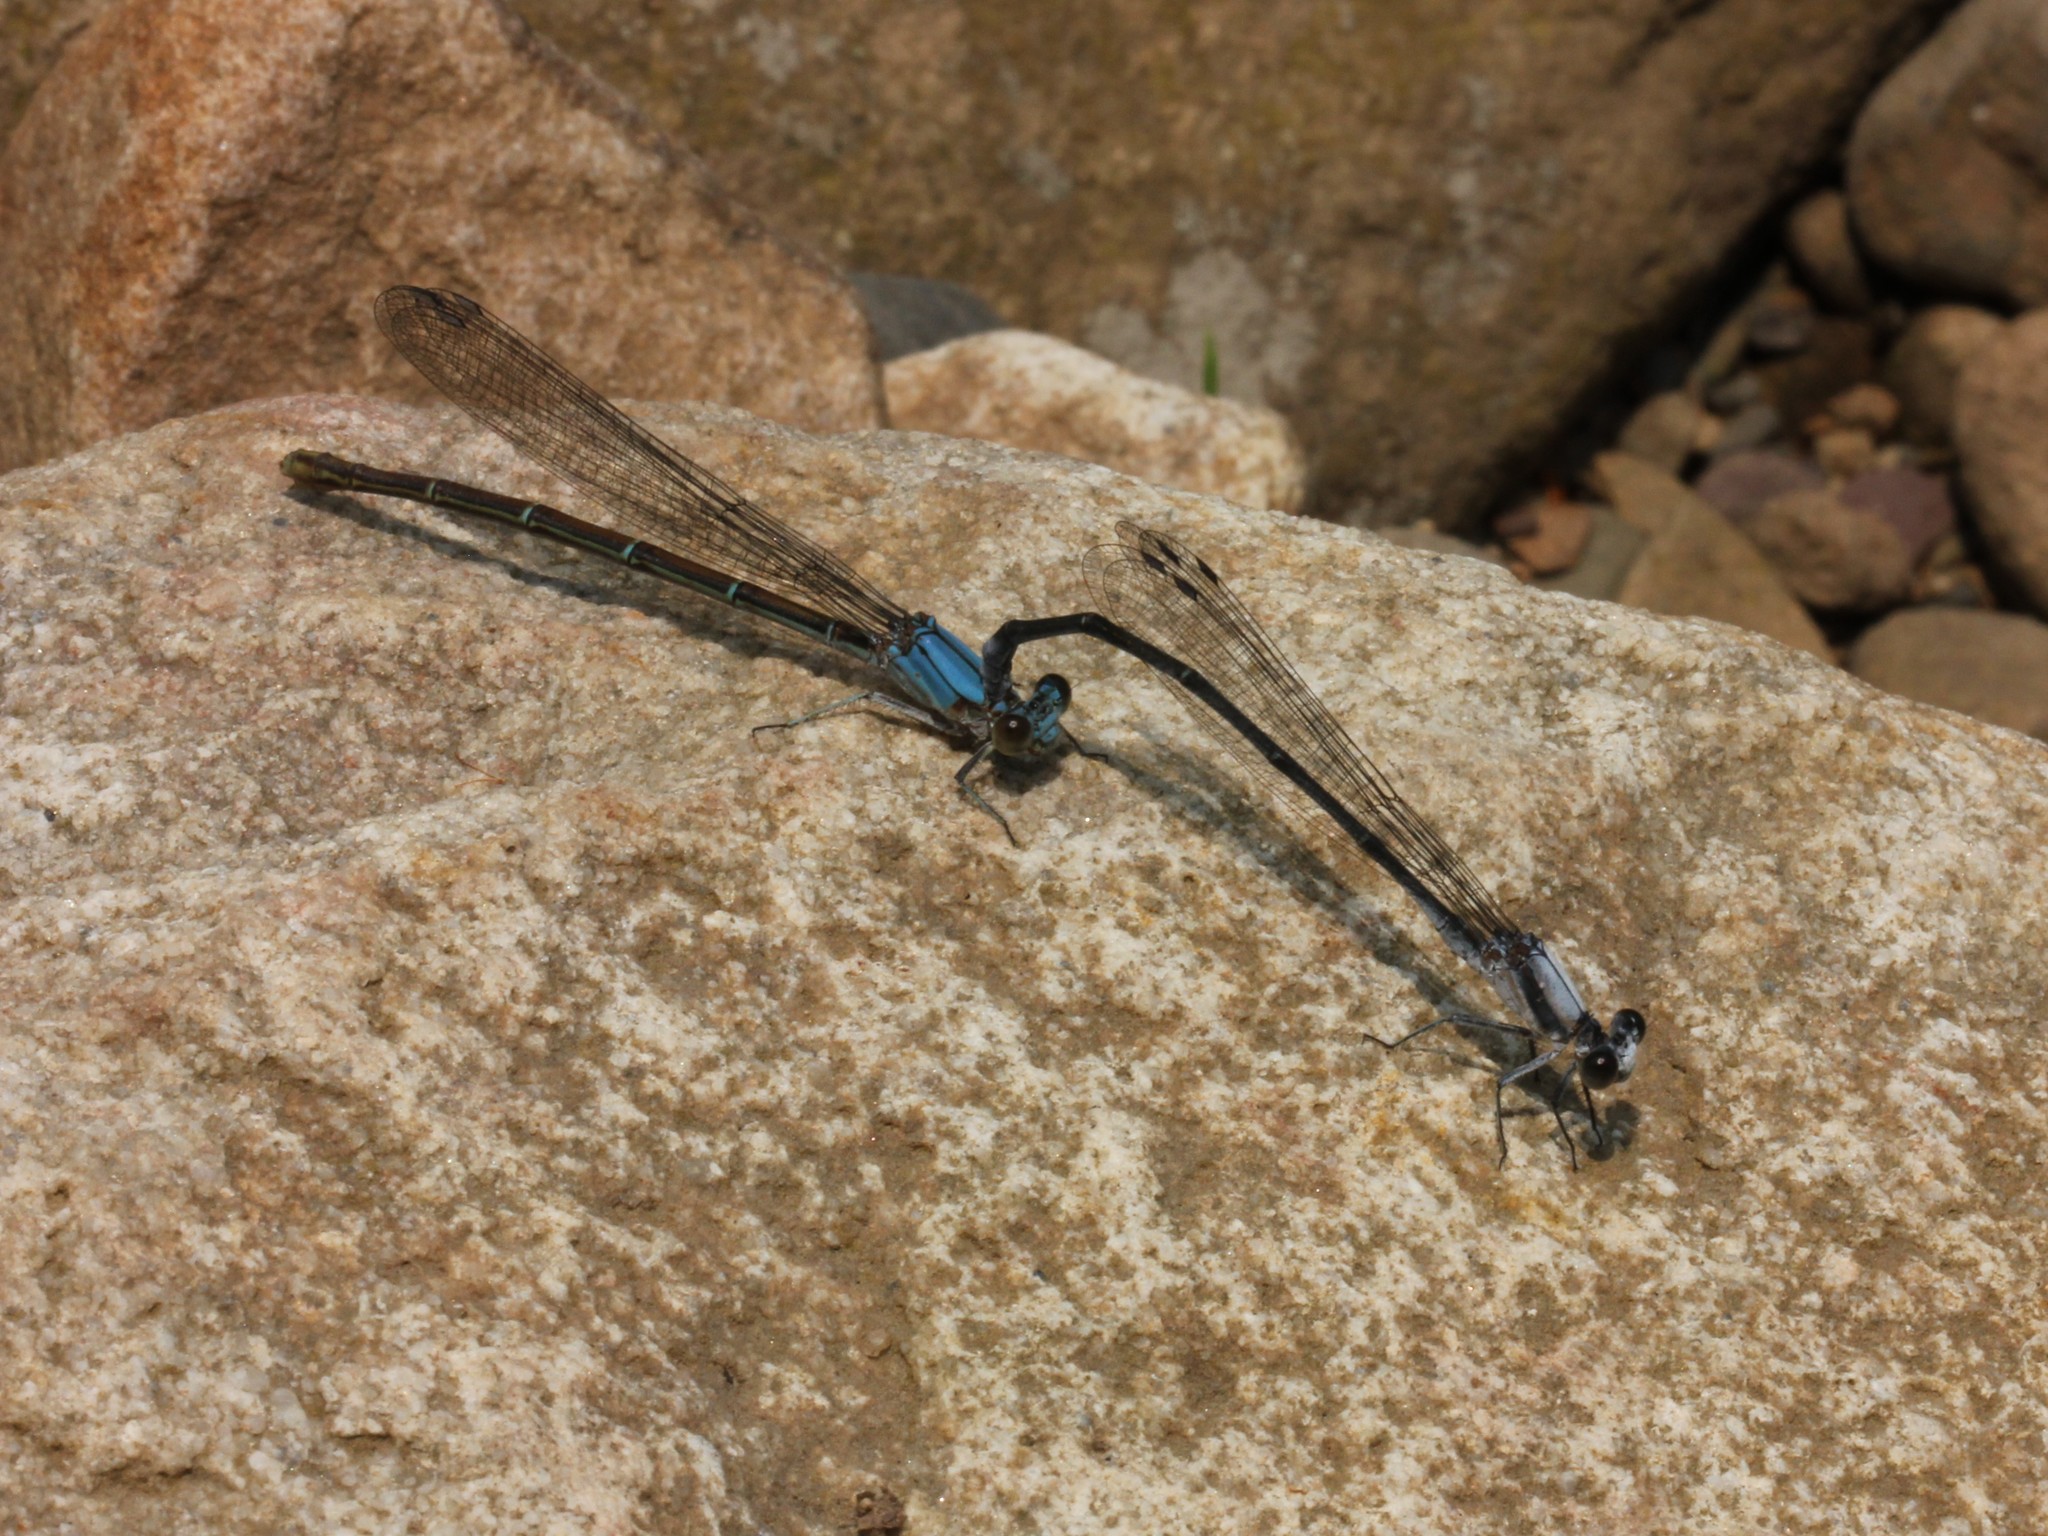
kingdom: Animalia
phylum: Arthropoda
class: Insecta
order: Odonata
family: Coenagrionidae
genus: Argia
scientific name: Argia moesta
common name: Powdered dancer
